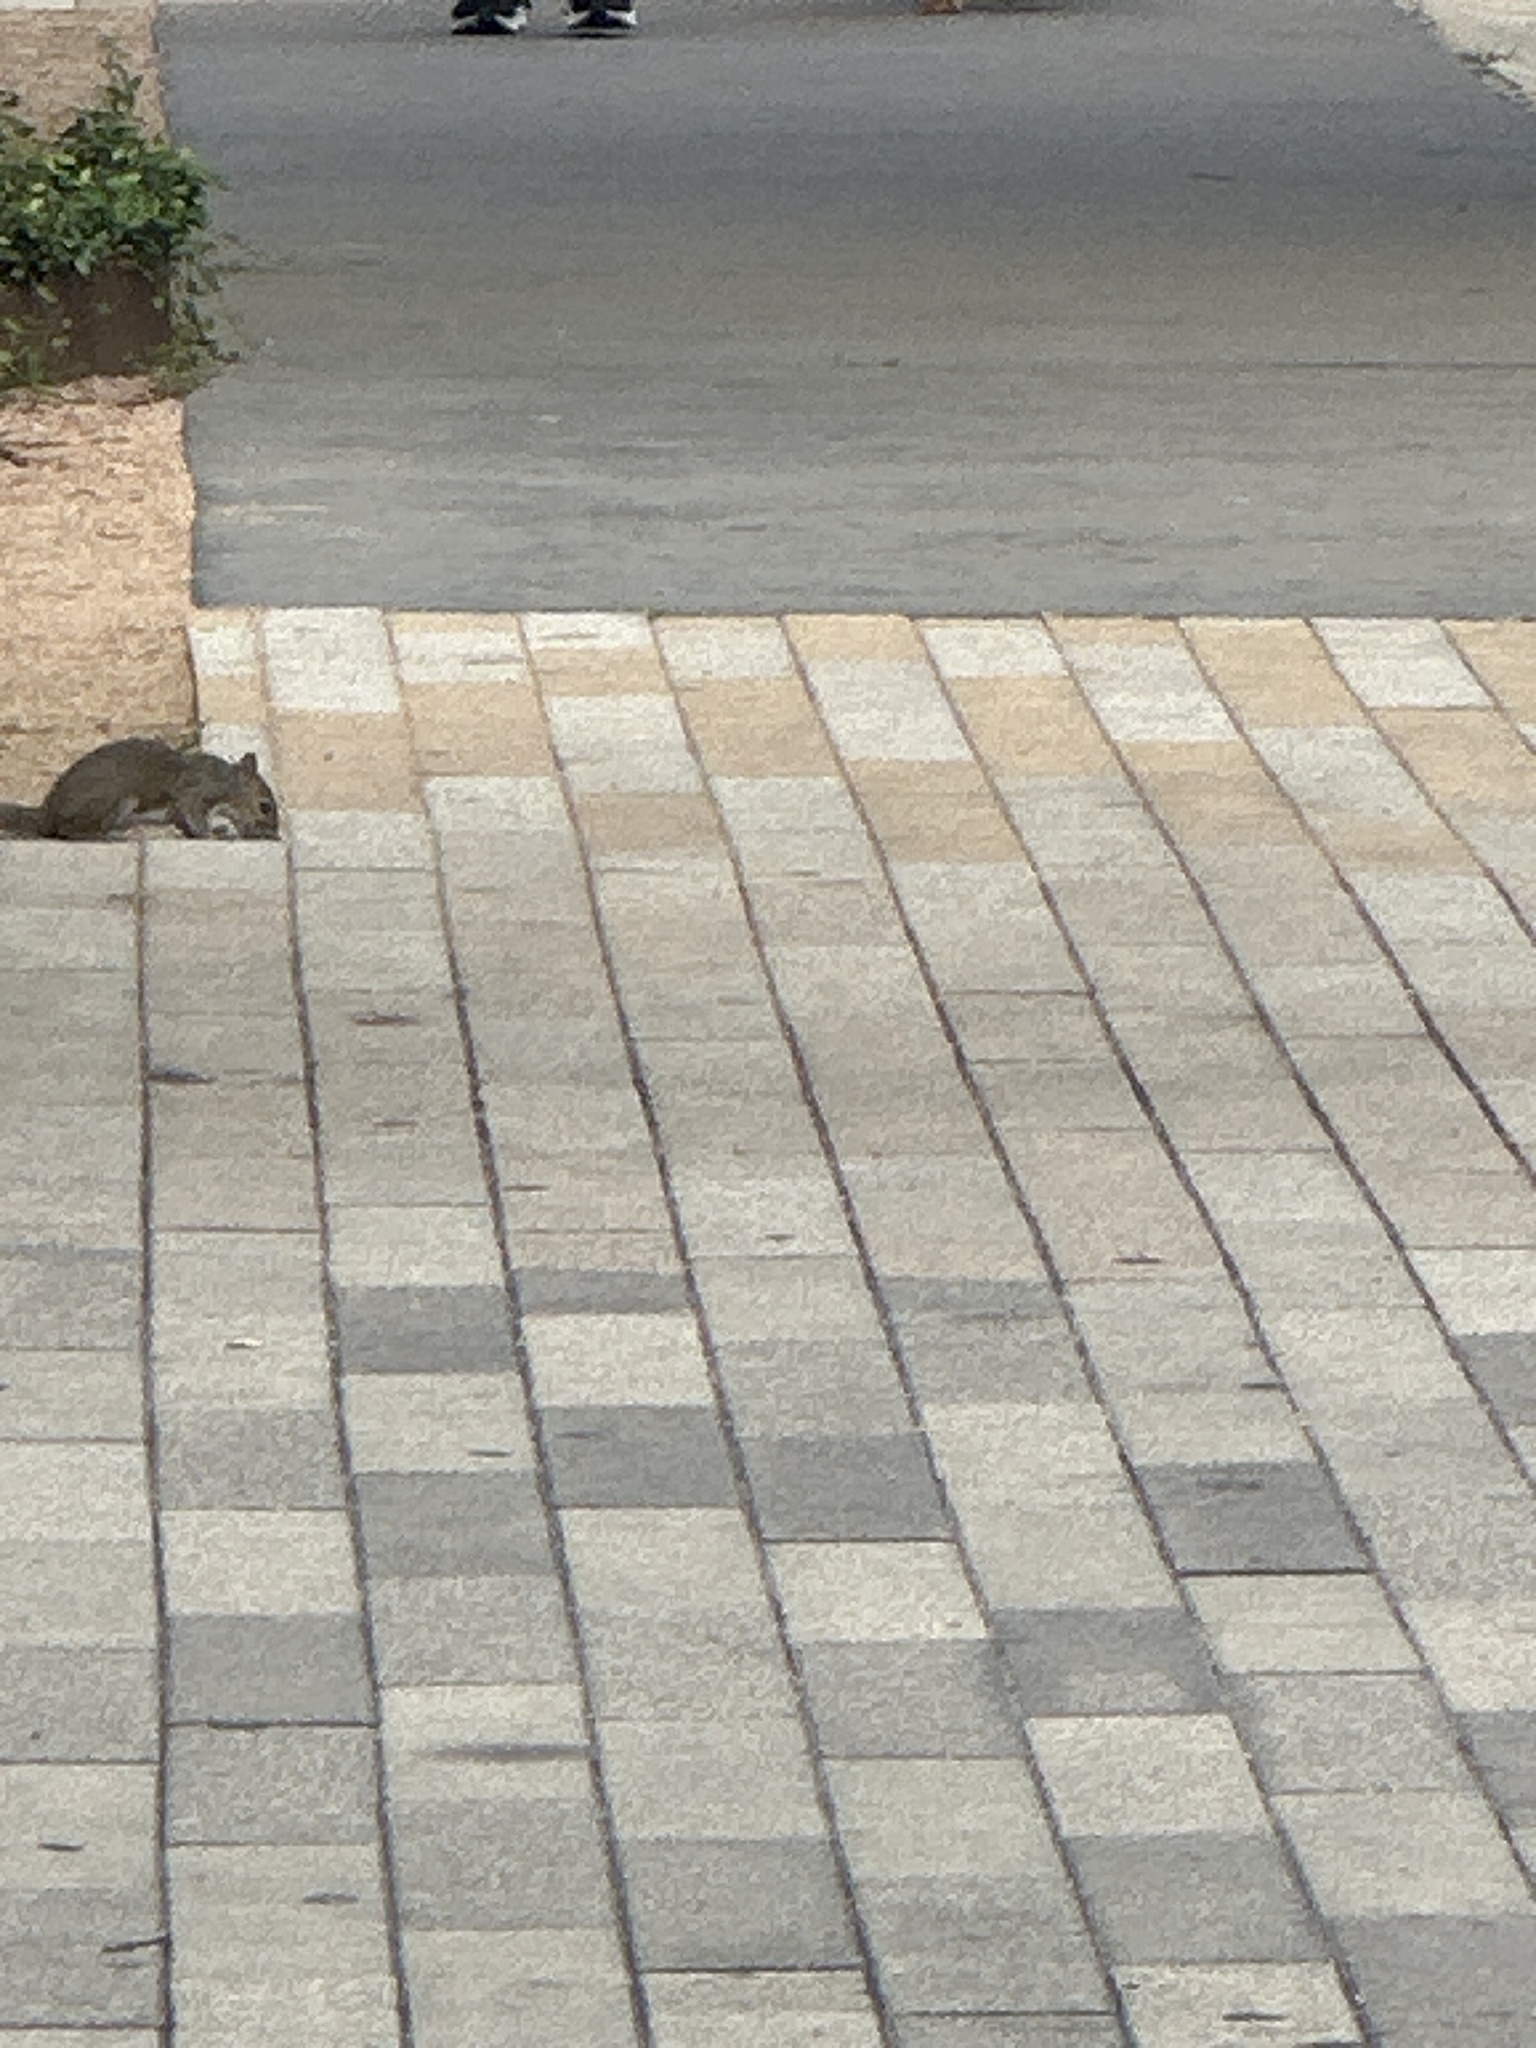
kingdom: Animalia
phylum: Chordata
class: Mammalia
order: Rodentia
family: Sciuridae
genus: Sciurus
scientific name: Sciurus carolinensis
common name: Eastern gray squirrel
